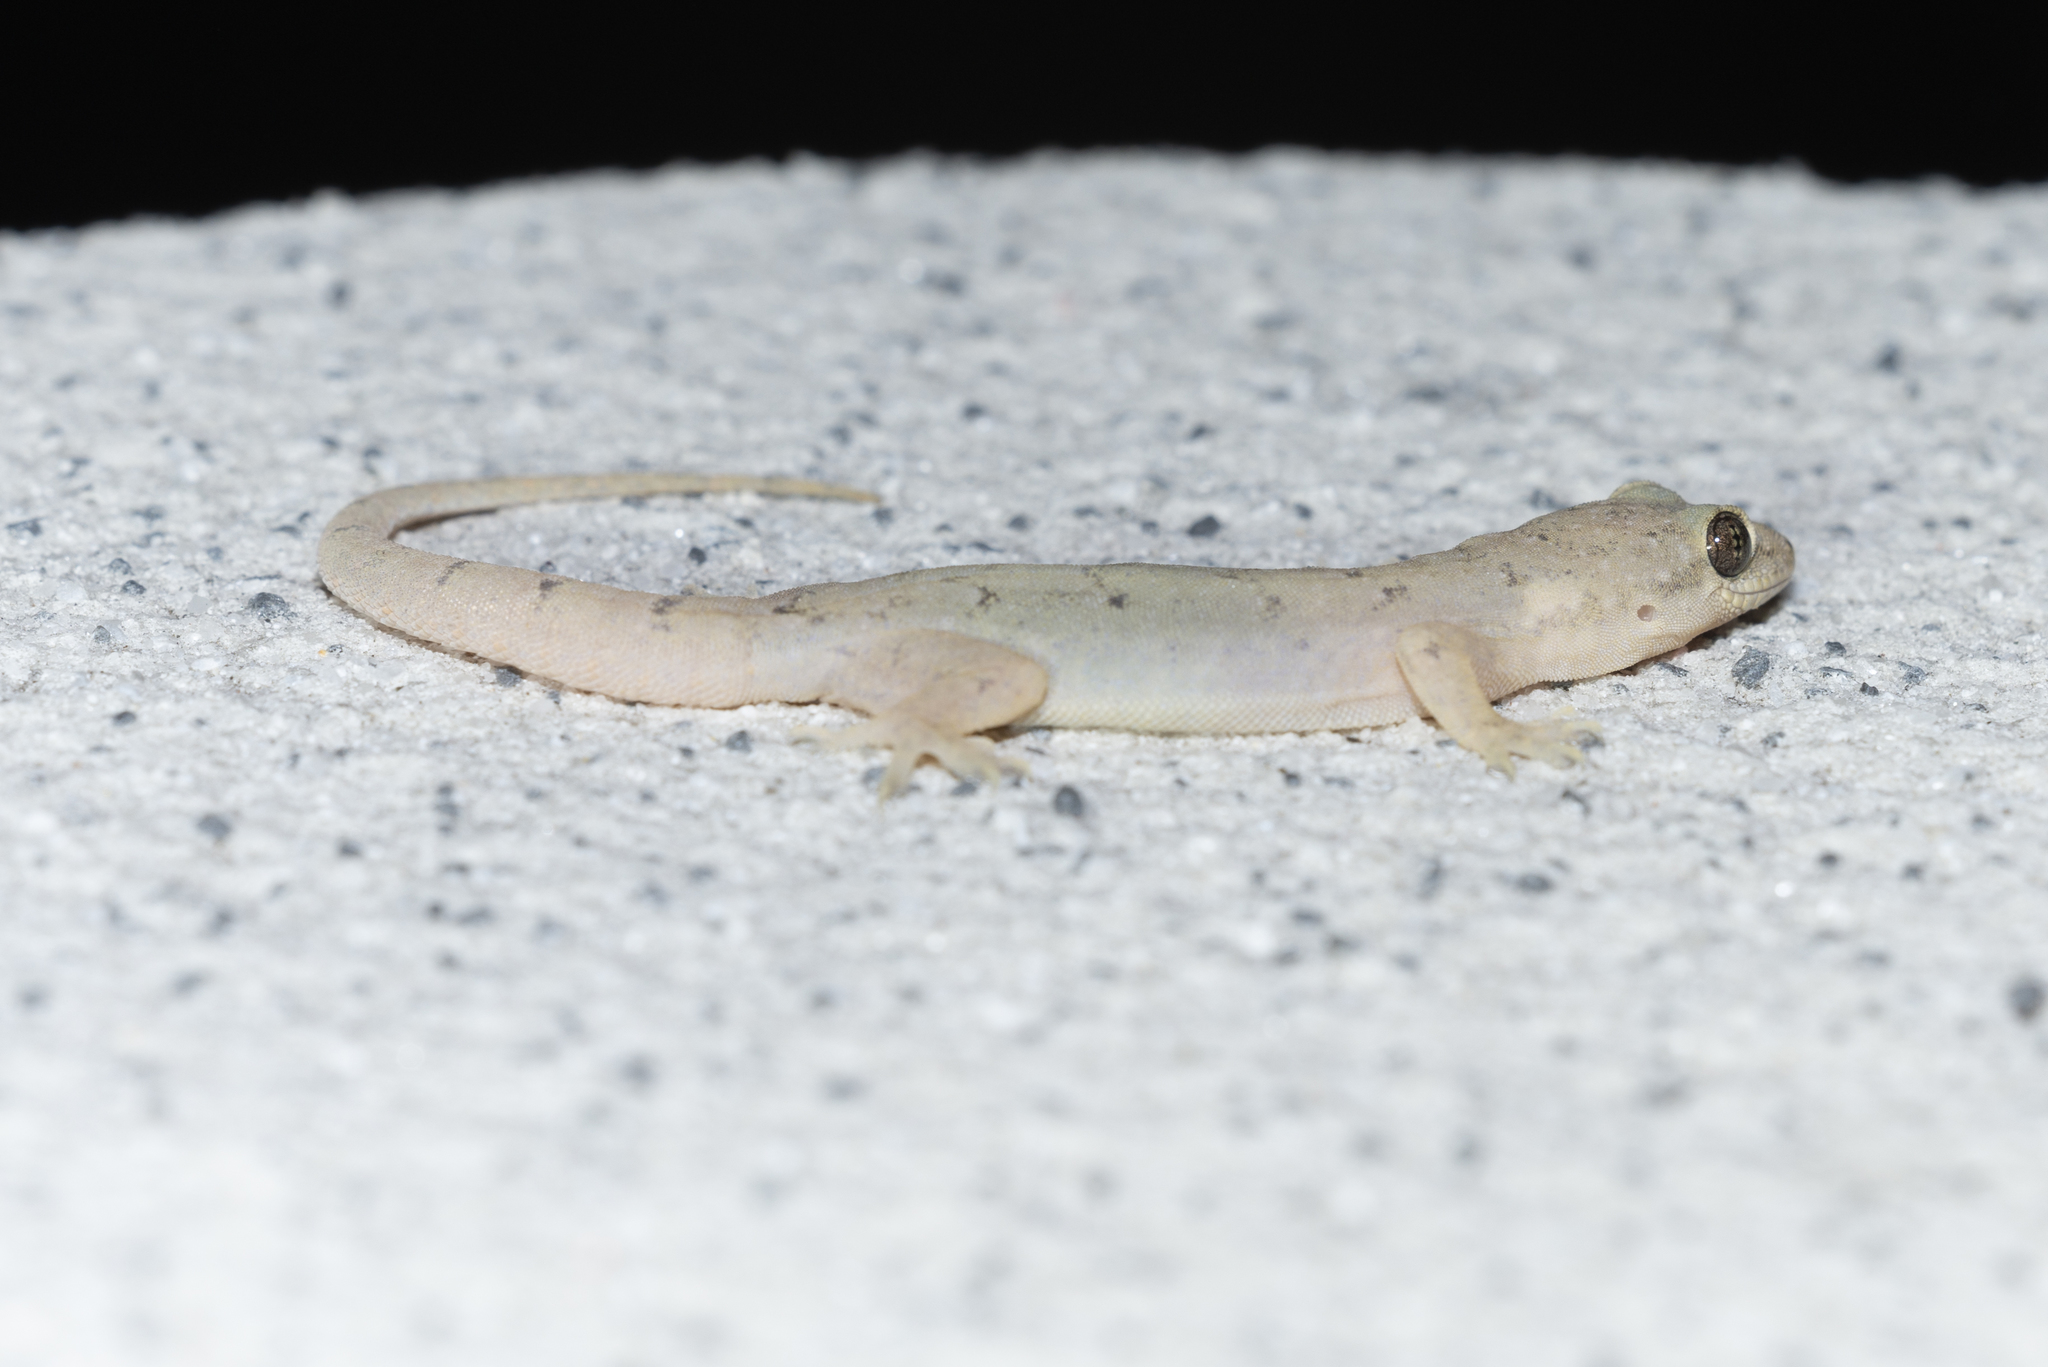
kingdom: Animalia
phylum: Chordata
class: Squamata
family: Gekkonidae
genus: Gehyra
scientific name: Gehyra mutilata
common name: Stump-toed gecko
